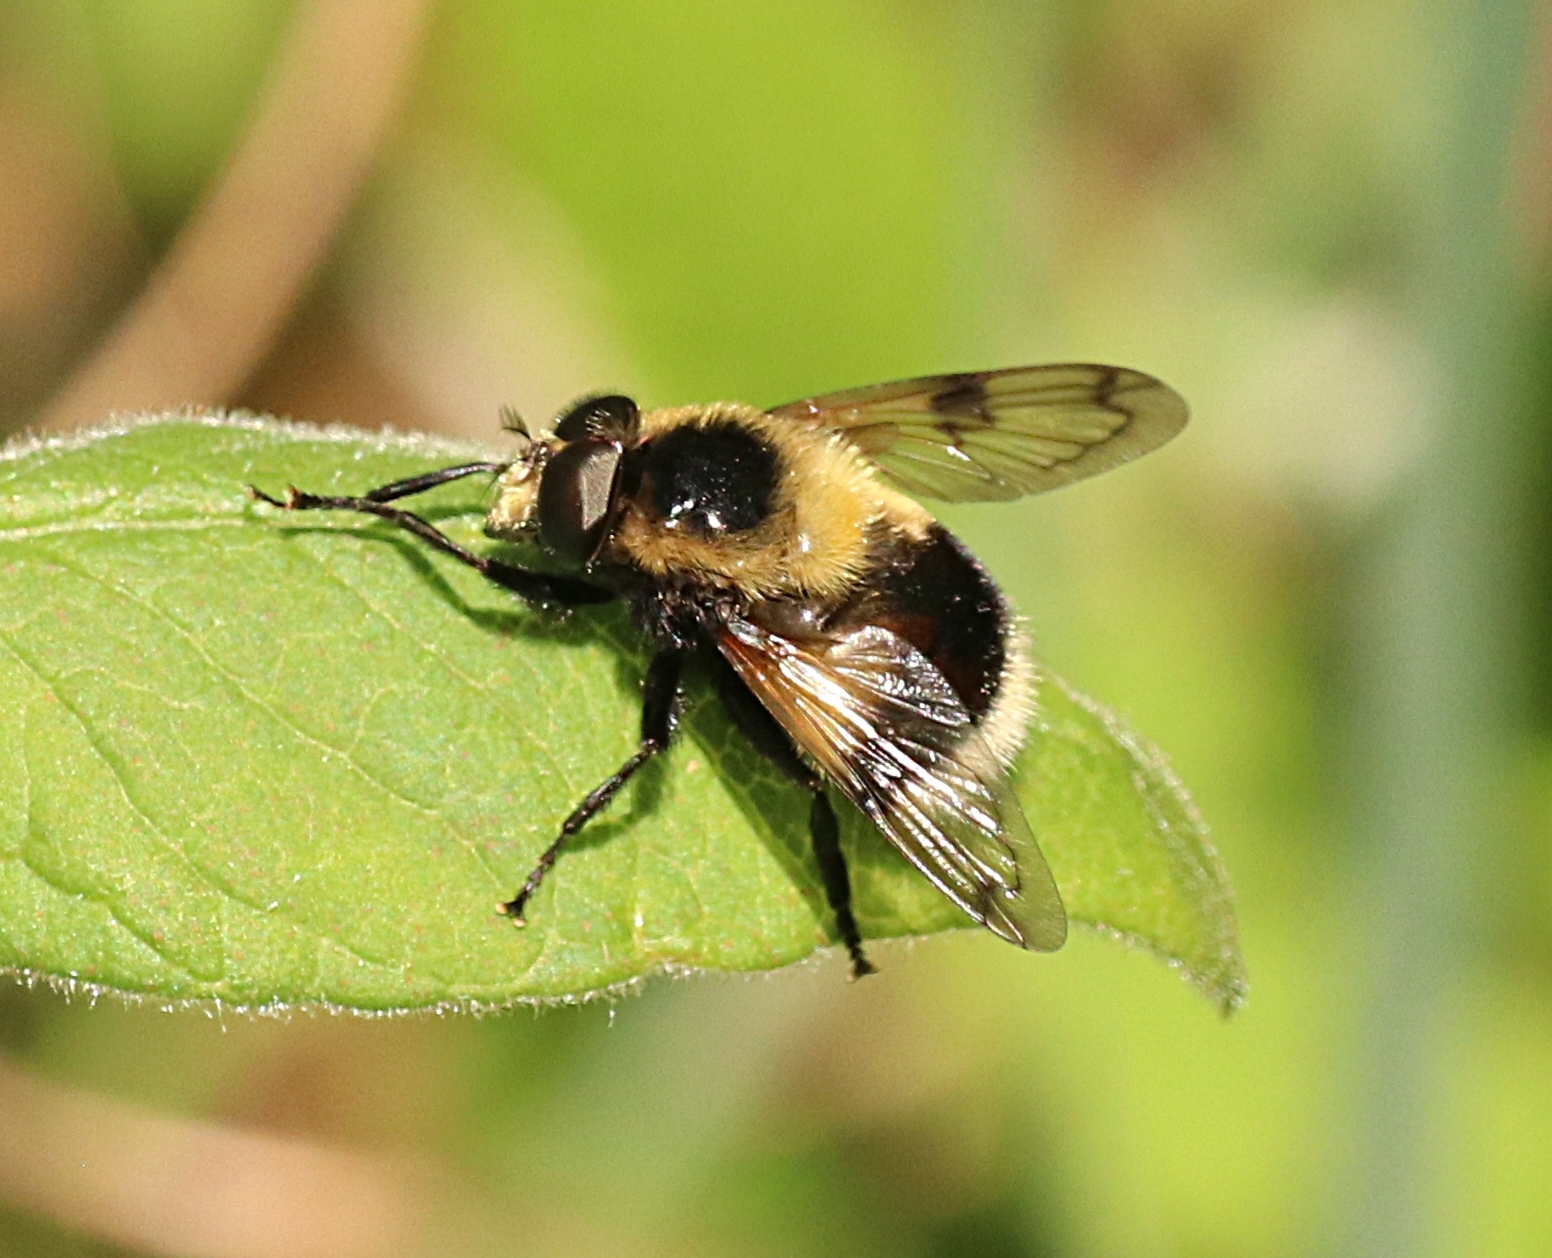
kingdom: Animalia
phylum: Arthropoda
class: Insecta
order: Diptera
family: Syrphidae
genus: Volucella
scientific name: Volucella bombylans
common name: Bumble bee hover fly
